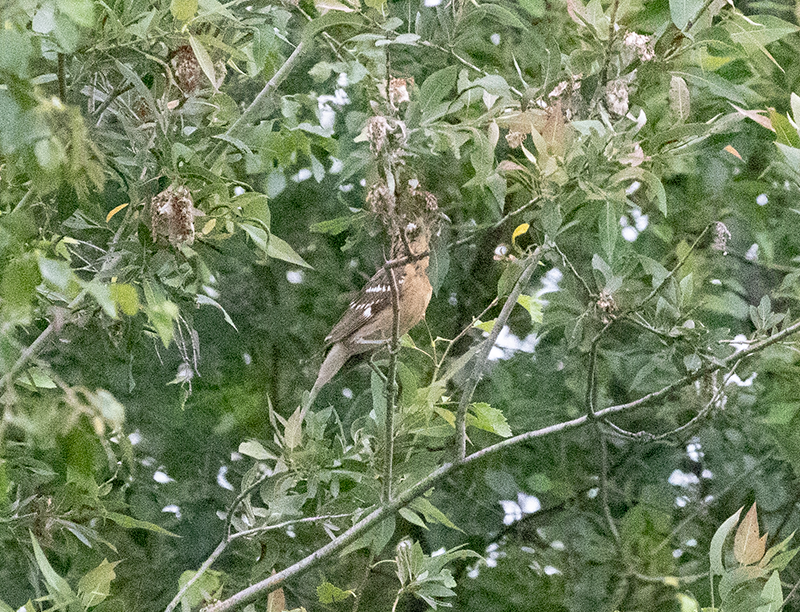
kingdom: Animalia
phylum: Chordata
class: Aves
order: Passeriformes
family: Cardinalidae
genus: Pheucticus
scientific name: Pheucticus melanocephalus
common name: Black-headed grosbeak
